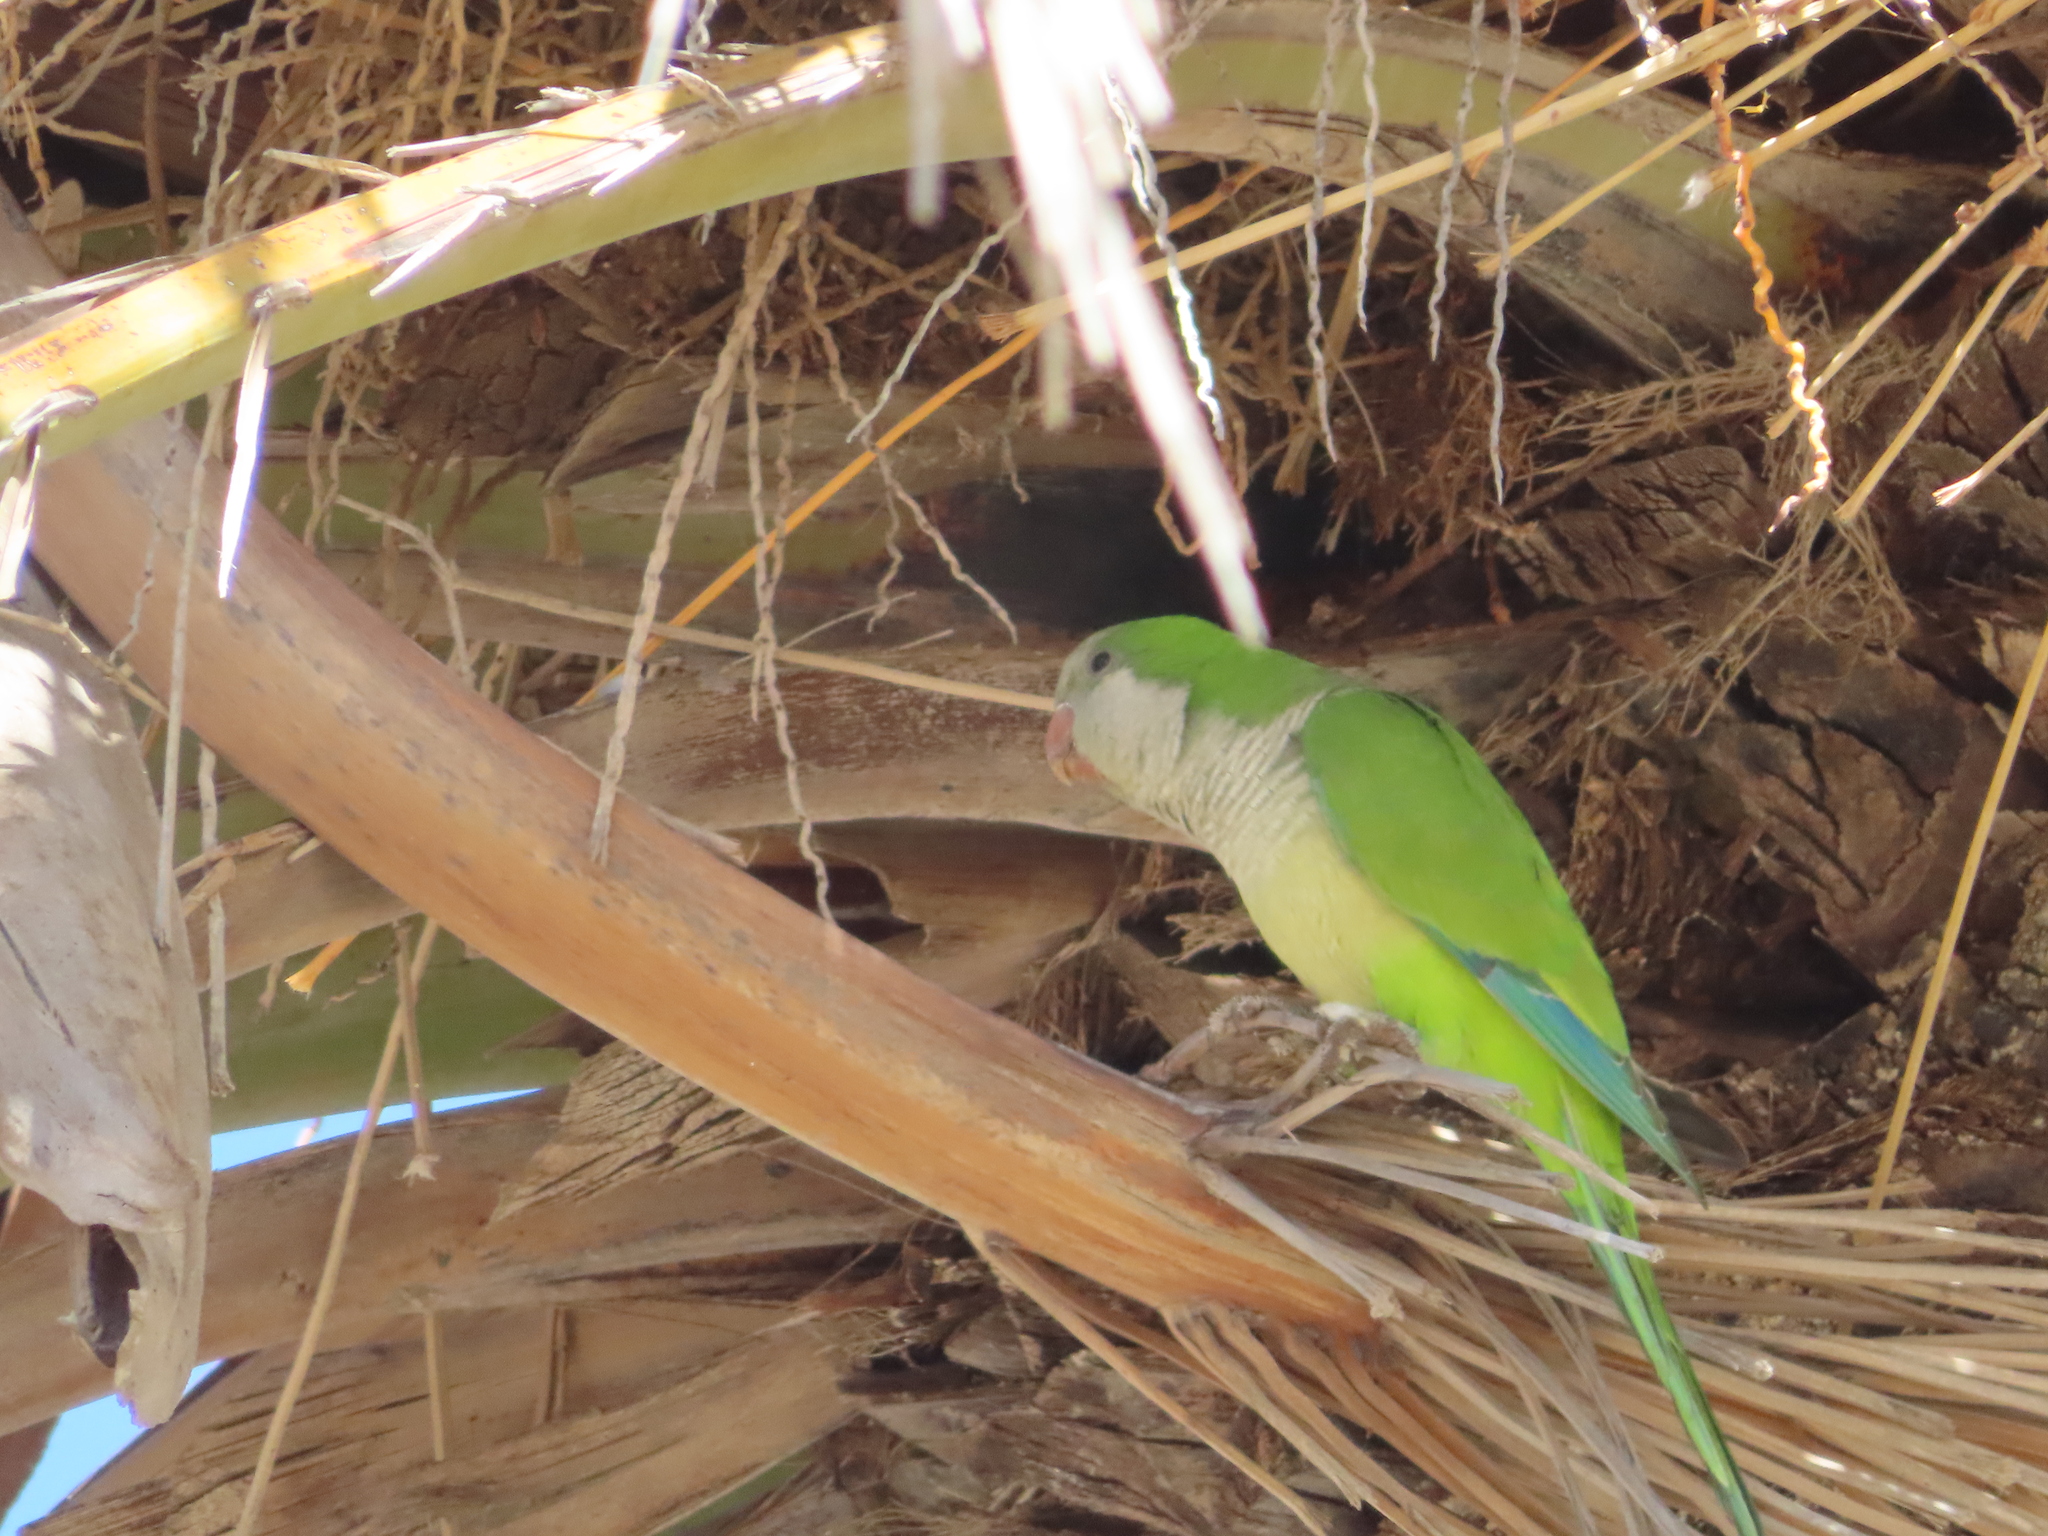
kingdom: Animalia
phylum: Chordata
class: Aves
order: Psittaciformes
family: Psittacidae
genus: Myiopsitta
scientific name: Myiopsitta monachus
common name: Monk parakeet
